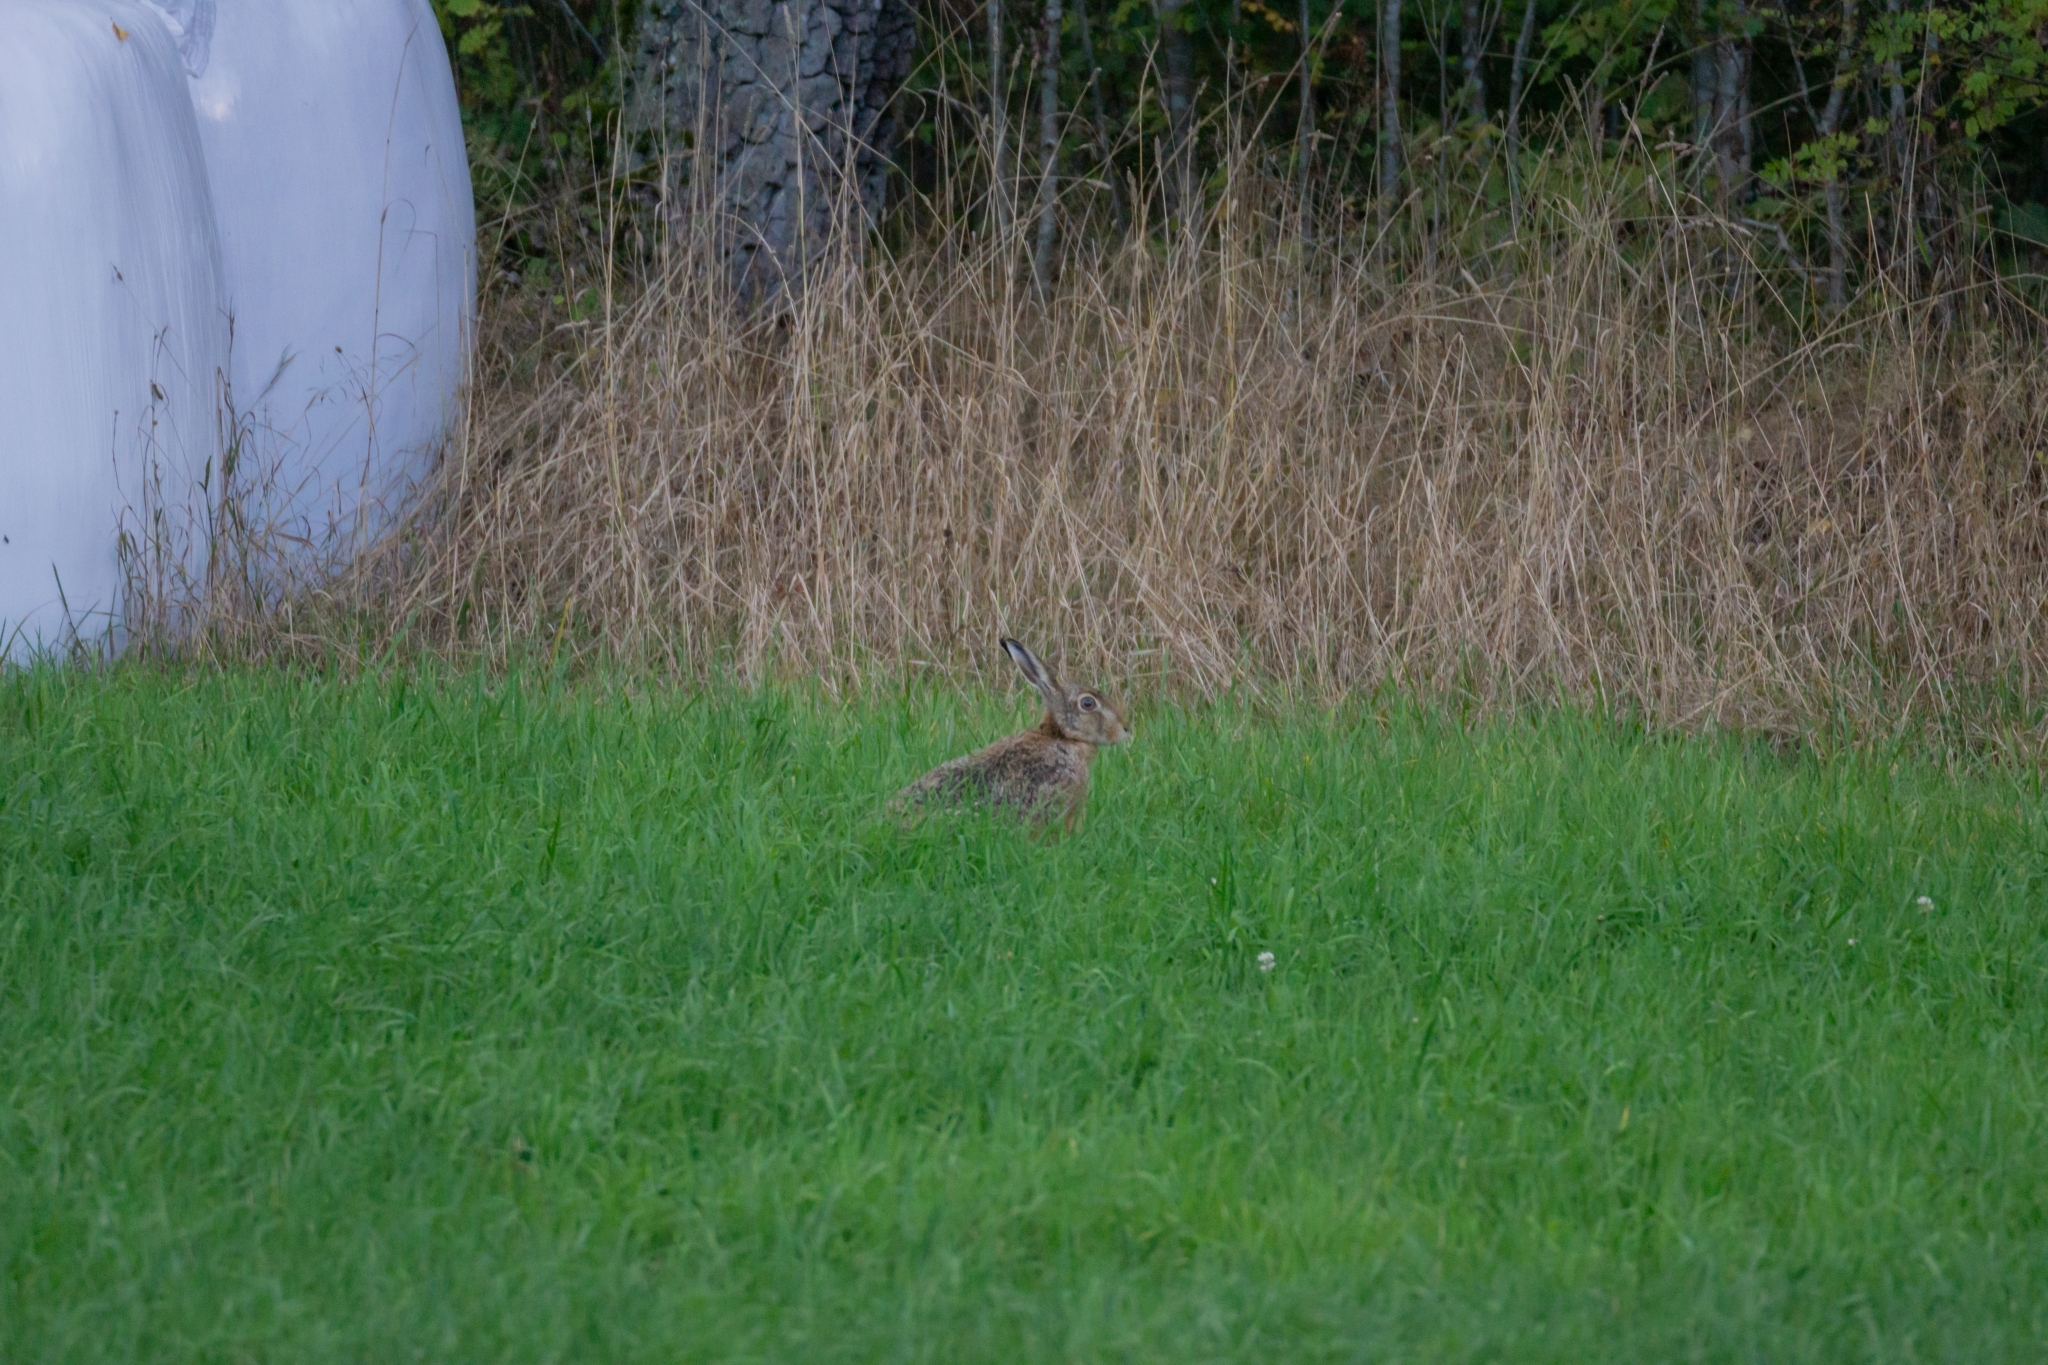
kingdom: Animalia
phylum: Chordata
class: Mammalia
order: Lagomorpha
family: Leporidae
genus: Lepus
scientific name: Lepus europaeus
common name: European hare
